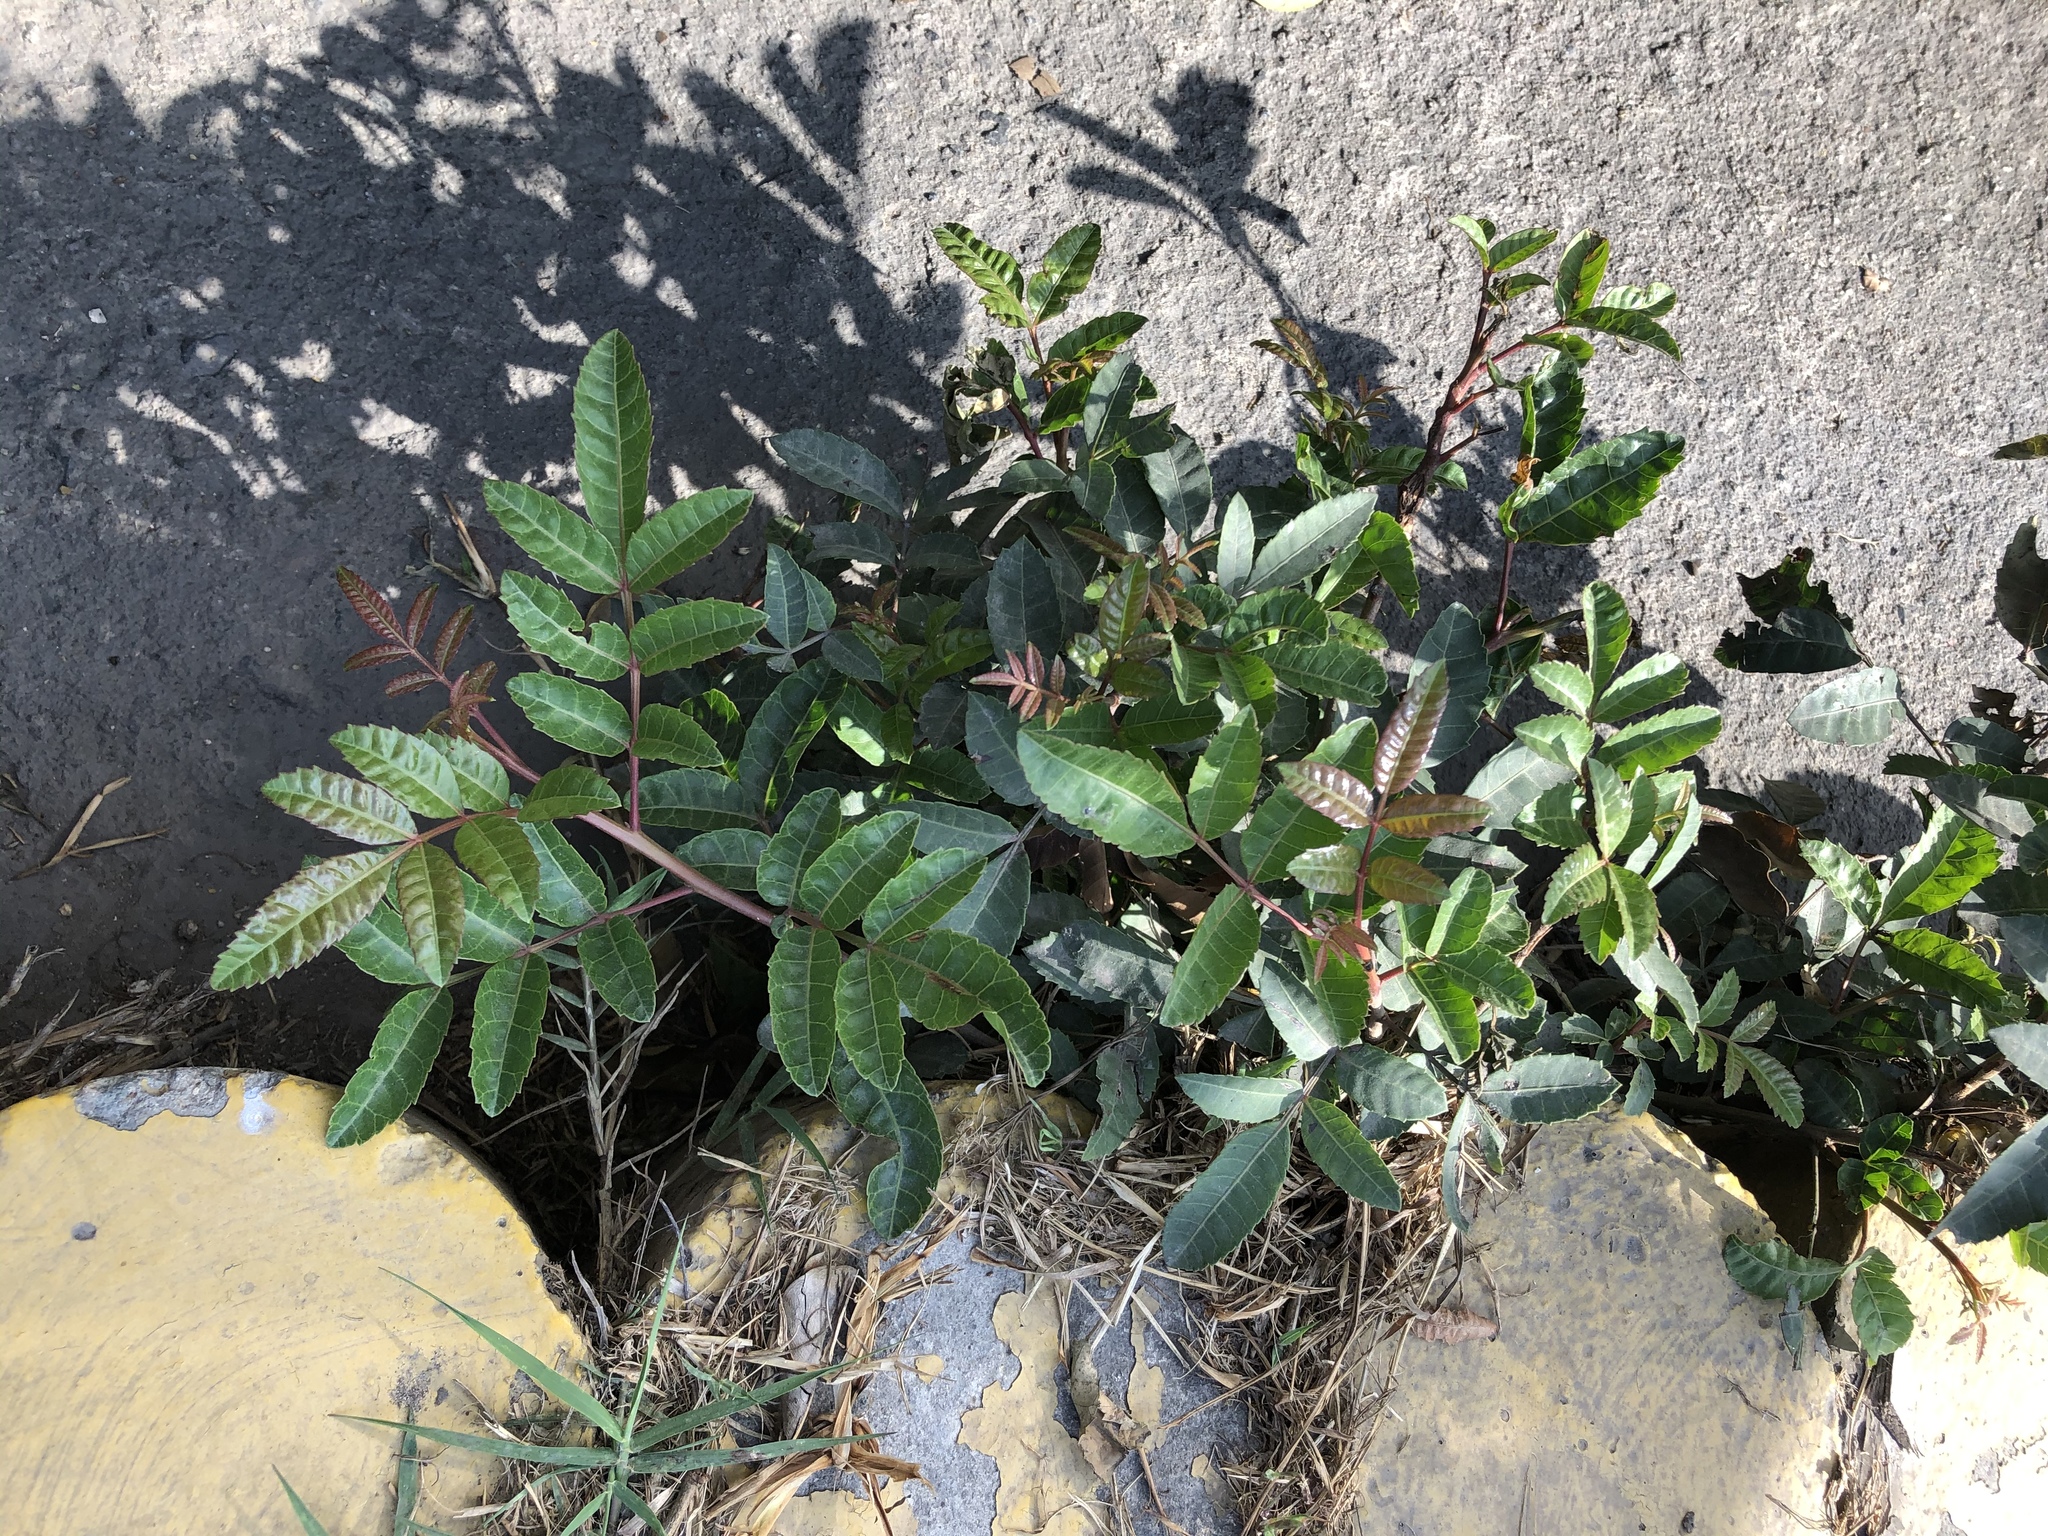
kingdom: Plantae
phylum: Tracheophyta
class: Magnoliopsida
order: Sapindales
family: Anacardiaceae
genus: Schinus
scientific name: Schinus terebinthifolia
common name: Brazilian peppertree
